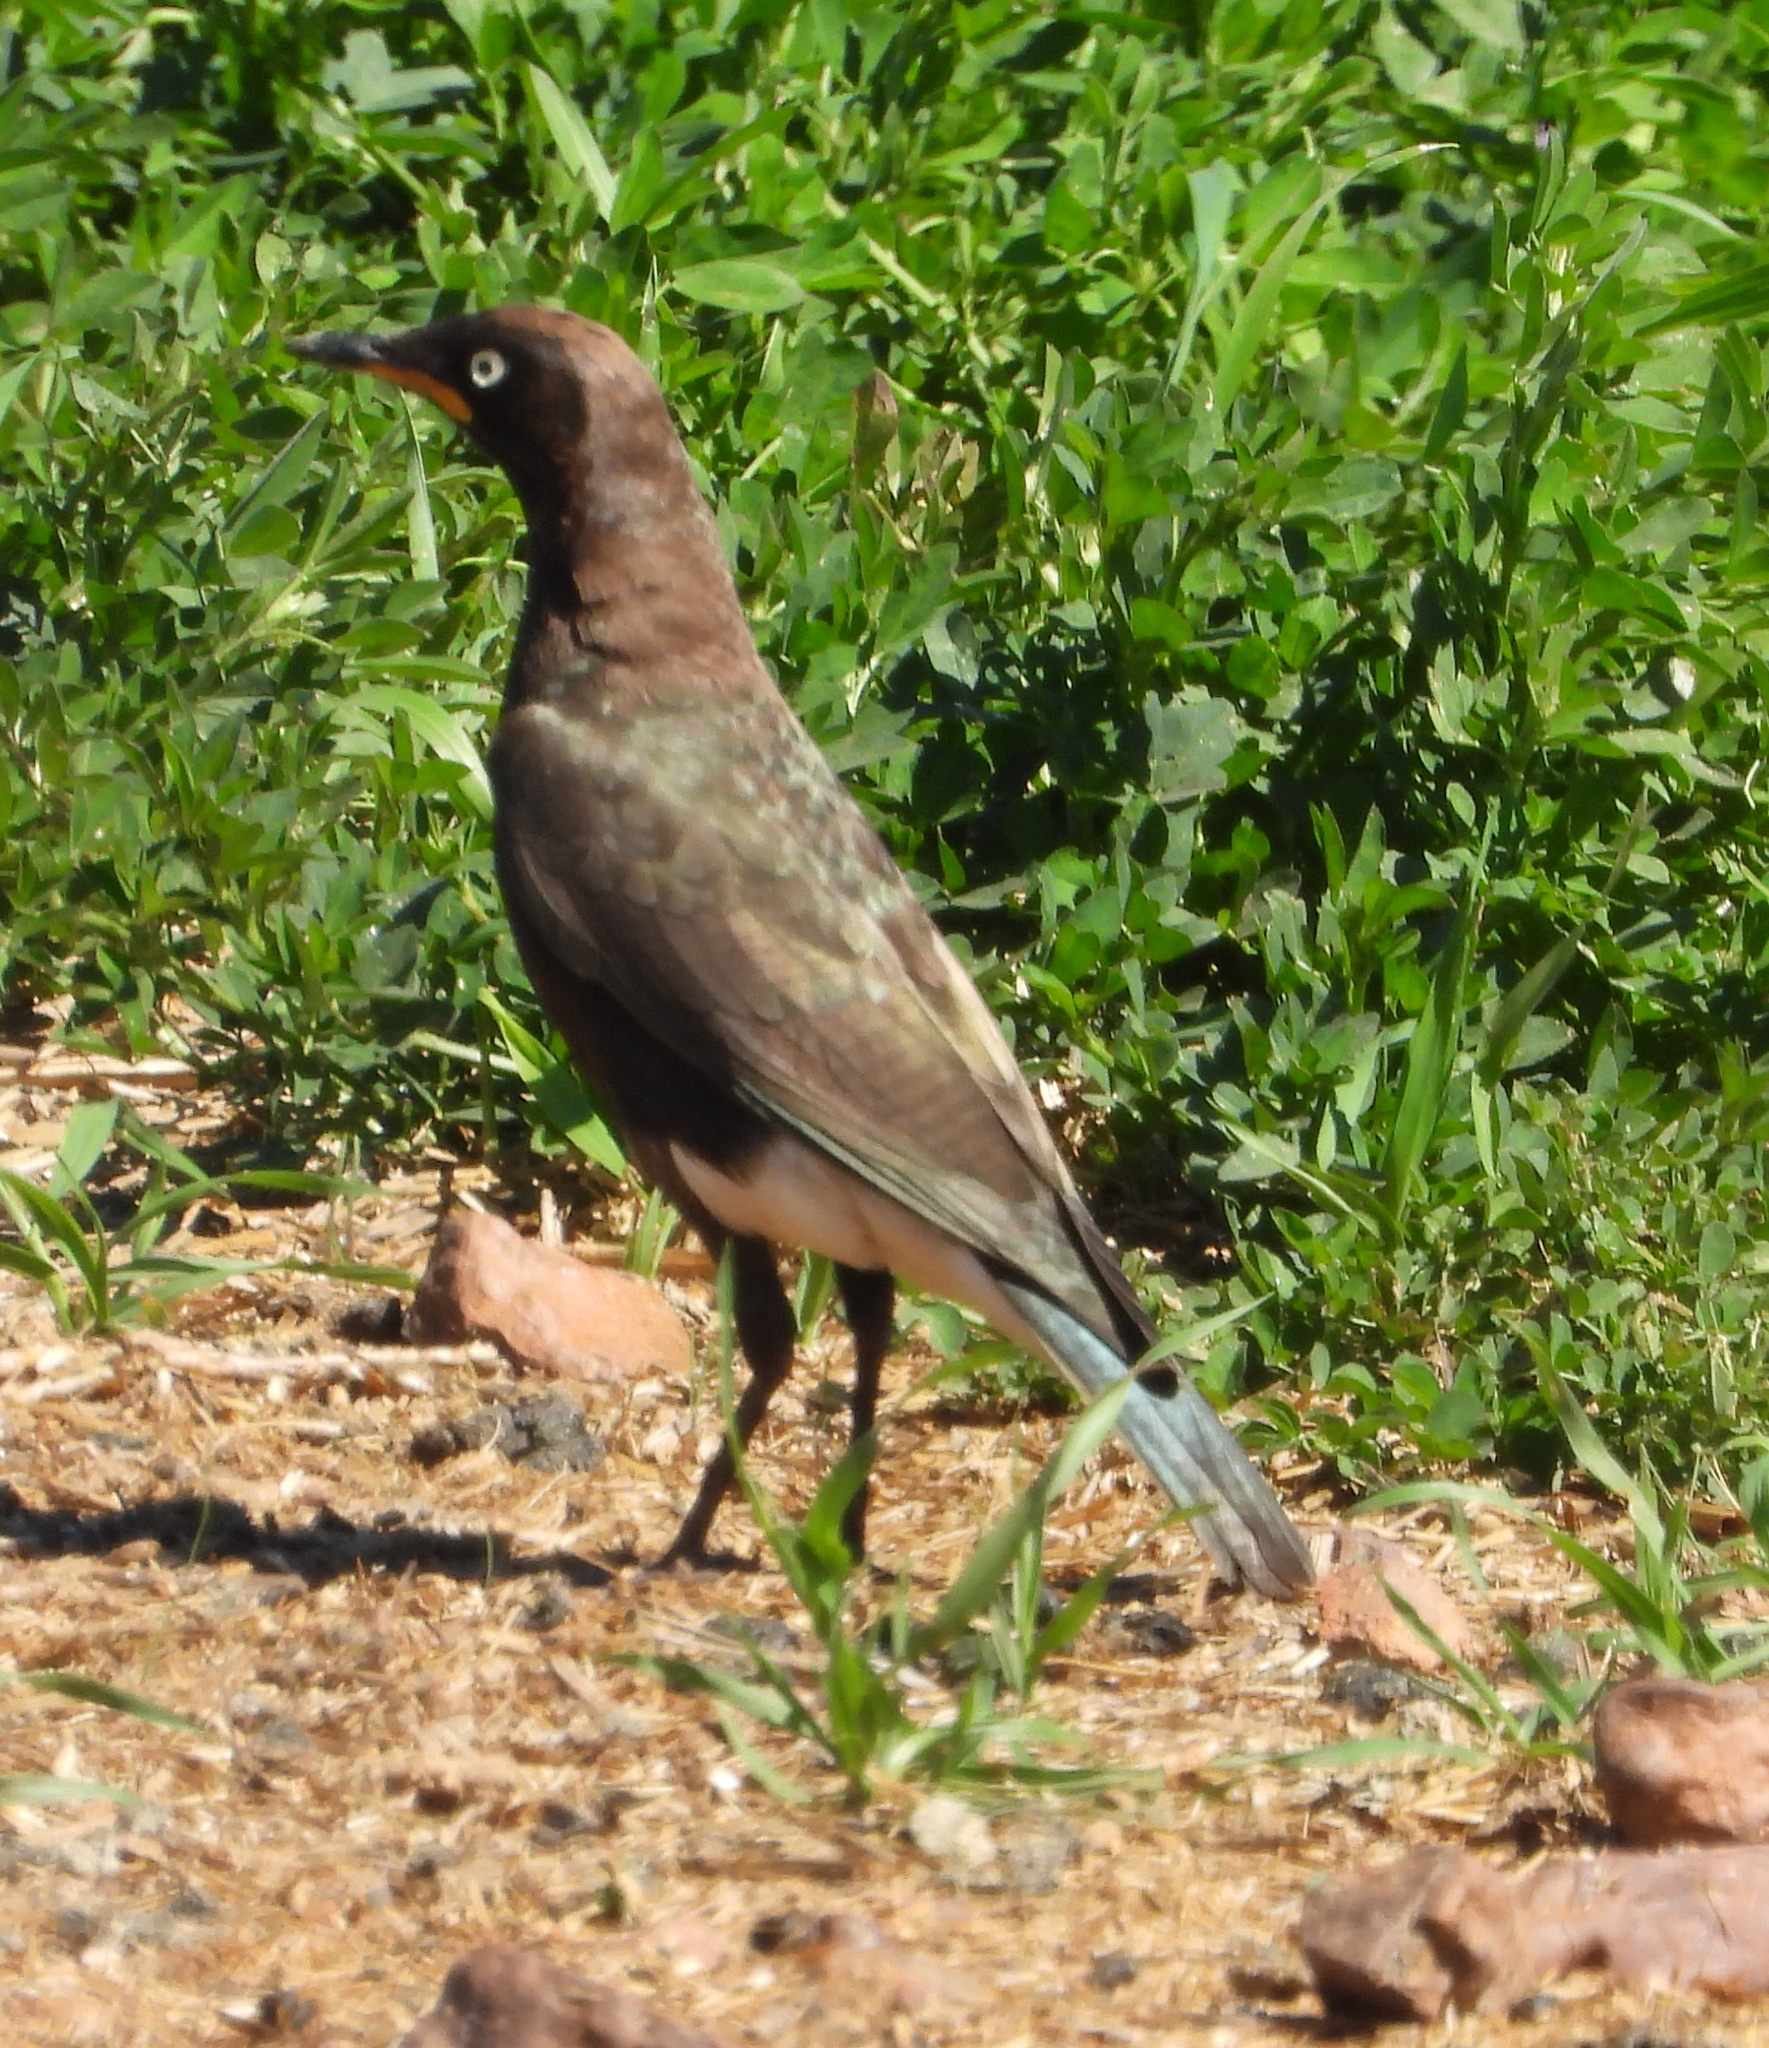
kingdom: Animalia
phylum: Chordata
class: Aves
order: Passeriformes
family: Sturnidae
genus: Lamprotornis
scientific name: Lamprotornis bicolor
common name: Pied starling
